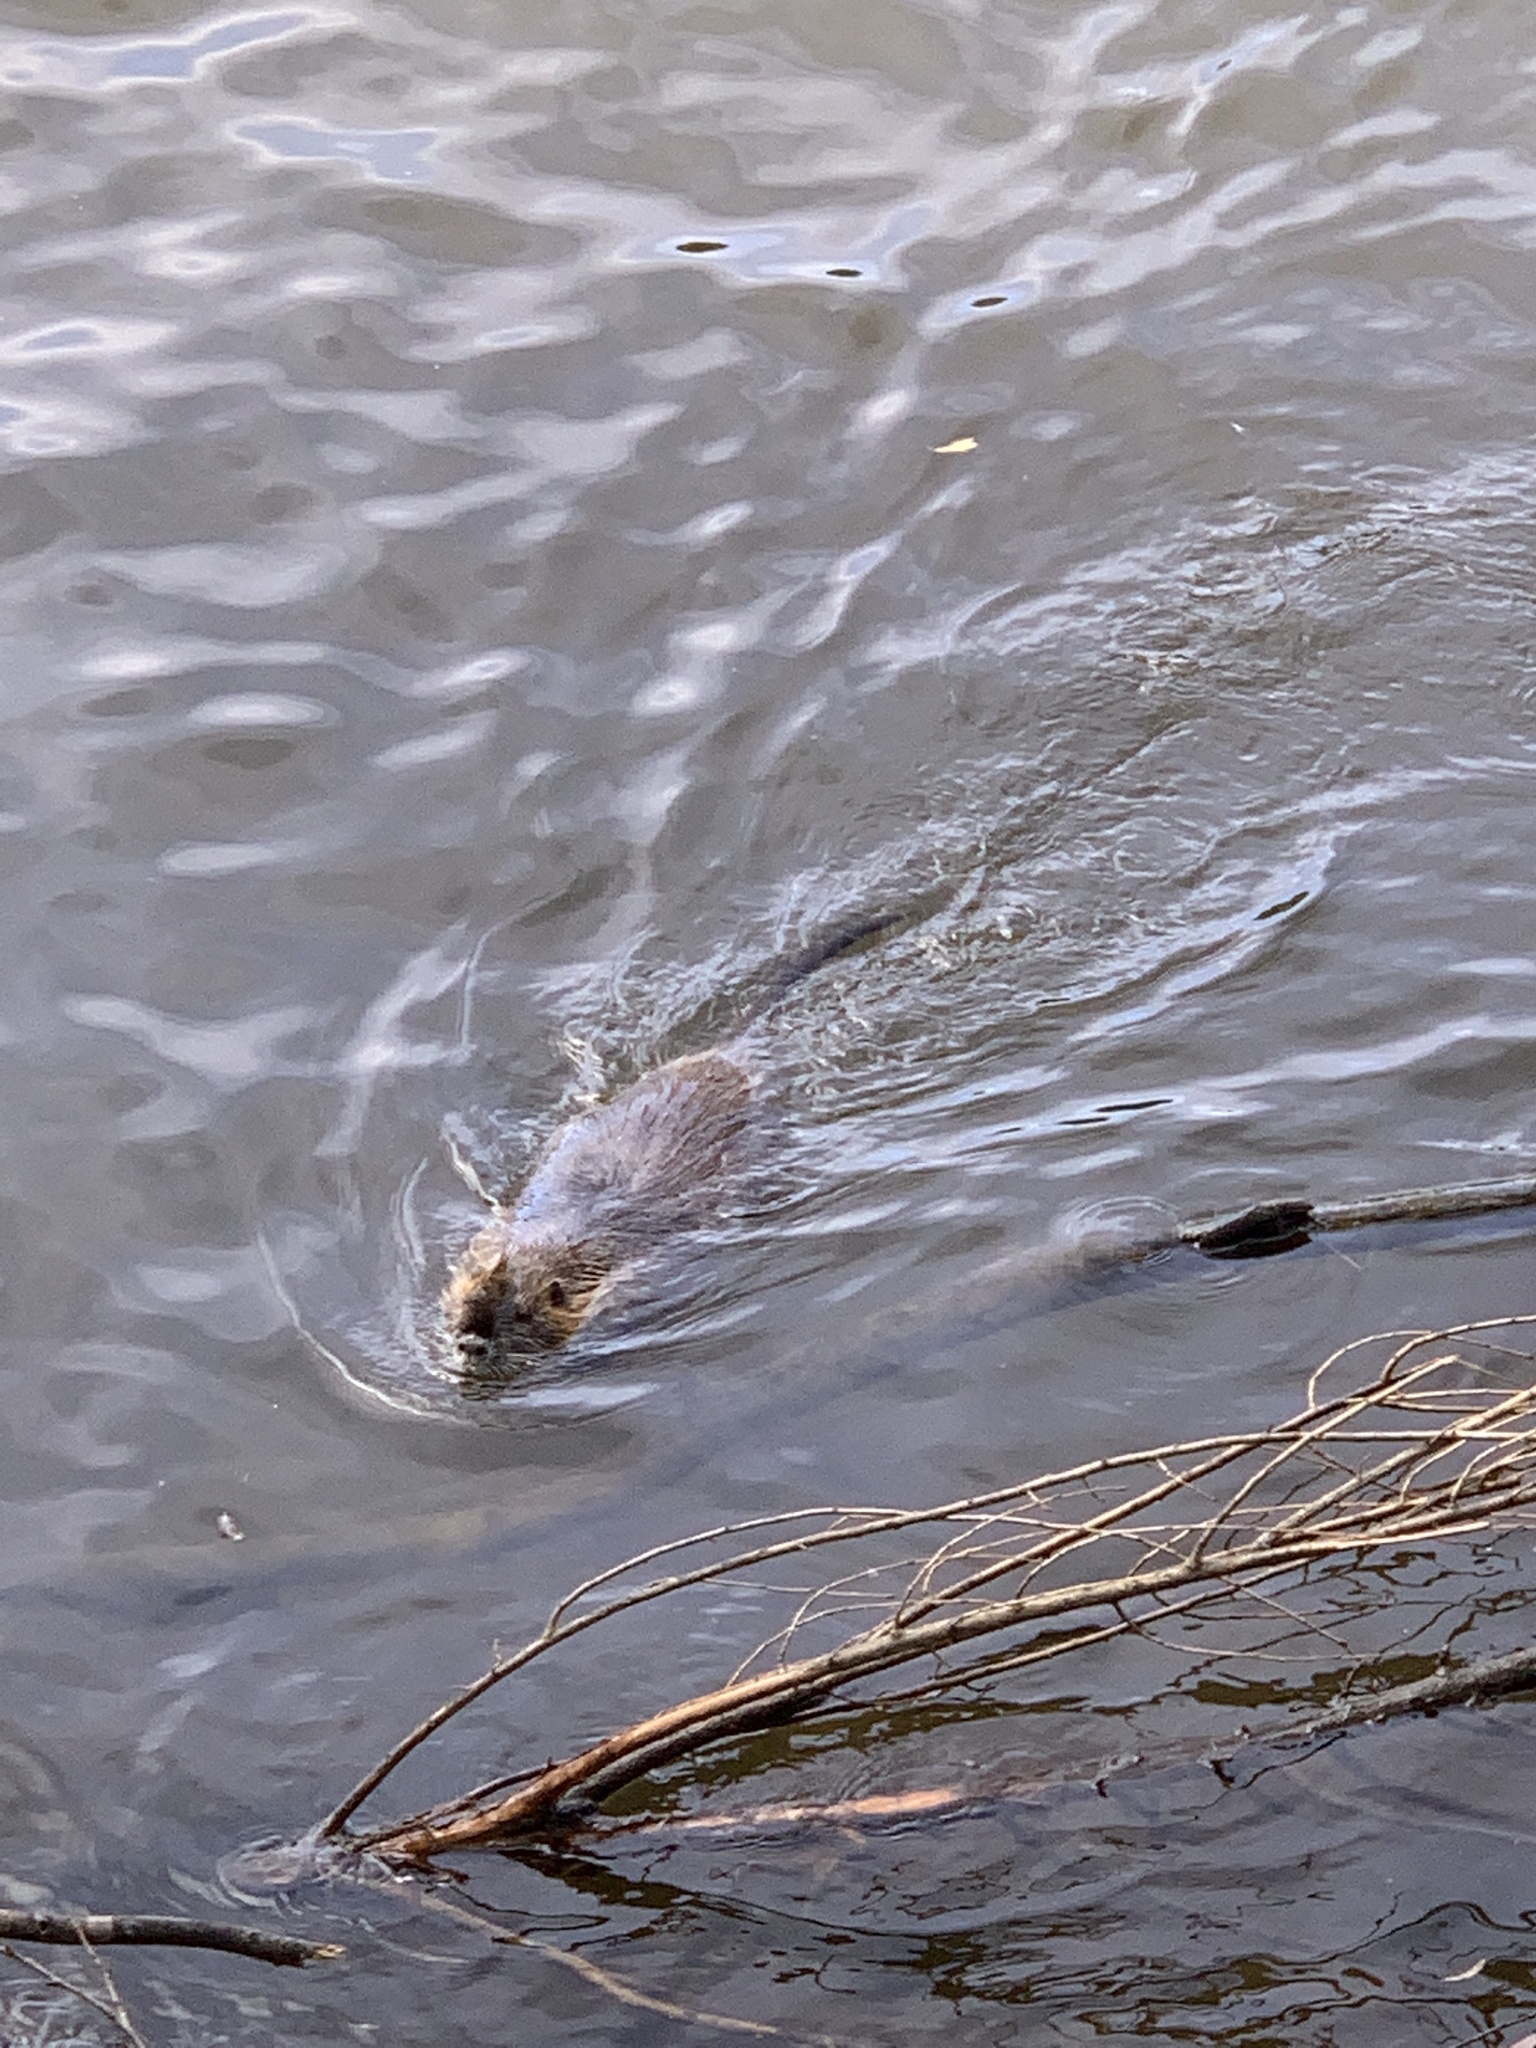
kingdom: Animalia
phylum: Chordata
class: Mammalia
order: Rodentia
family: Myocastoridae
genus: Myocastor
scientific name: Myocastor coypus
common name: Coypu
